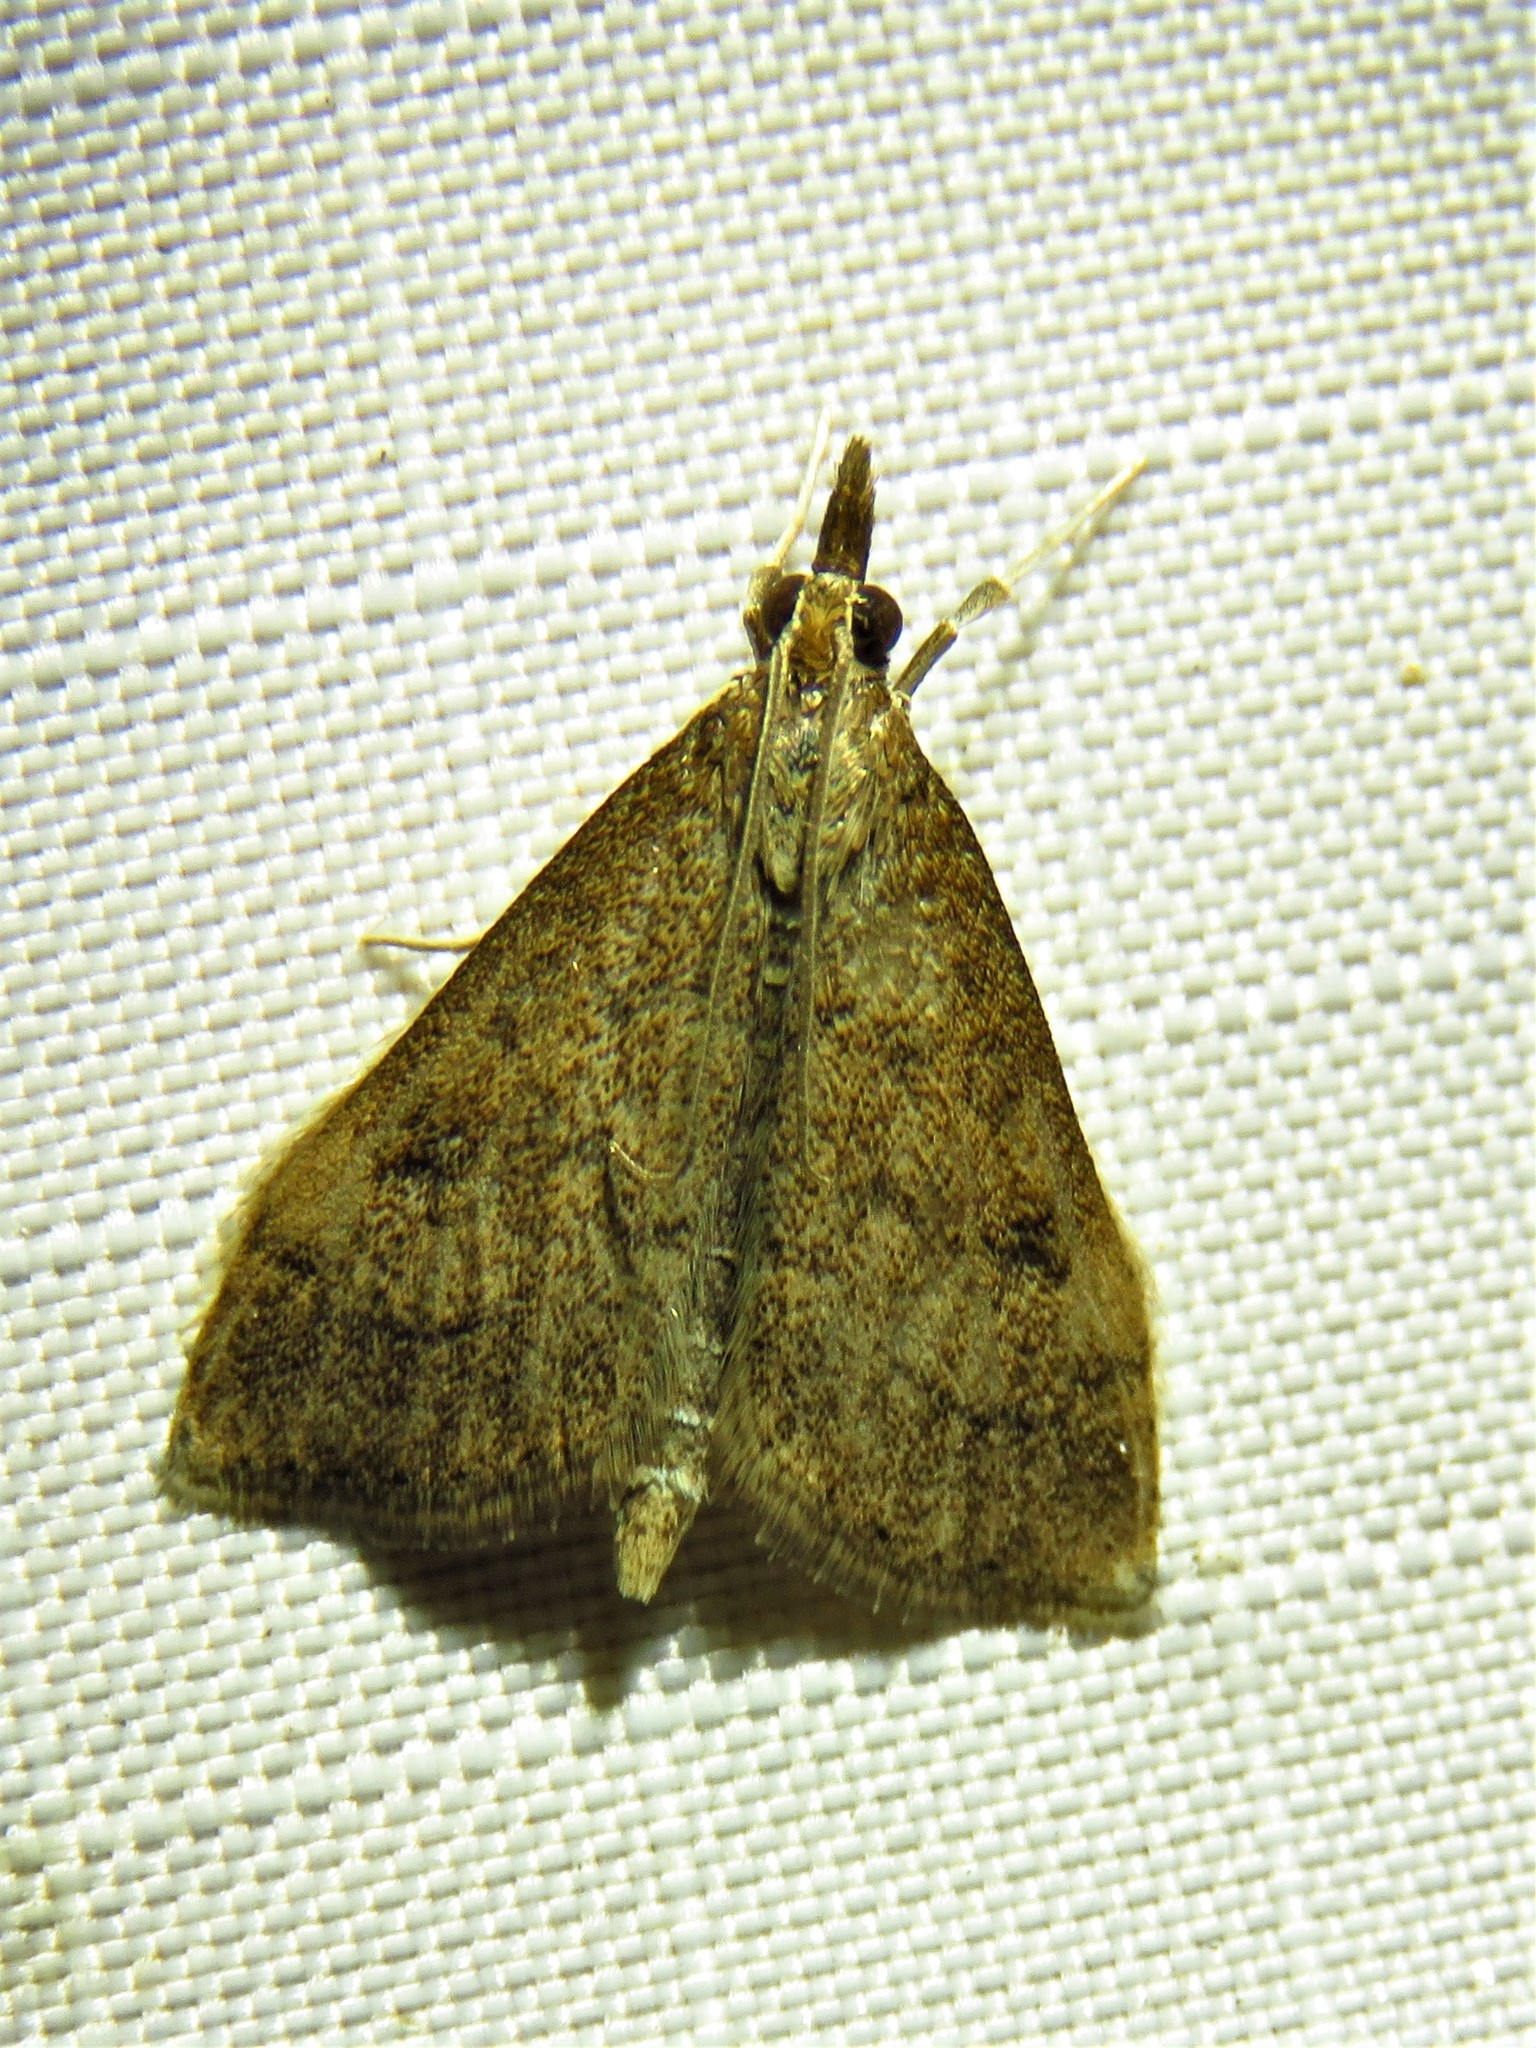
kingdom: Animalia
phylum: Arthropoda
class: Insecta
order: Lepidoptera
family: Crambidae
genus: Udea
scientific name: Udea rubigalis
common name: Celery leaftier moth
